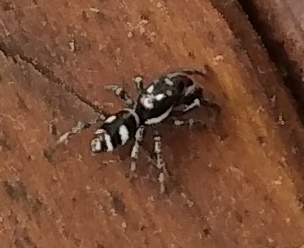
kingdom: Animalia
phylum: Arthropoda
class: Arachnida
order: Araneae
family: Salticidae
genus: Salticus
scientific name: Salticus scenicus
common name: Zebra jumper
